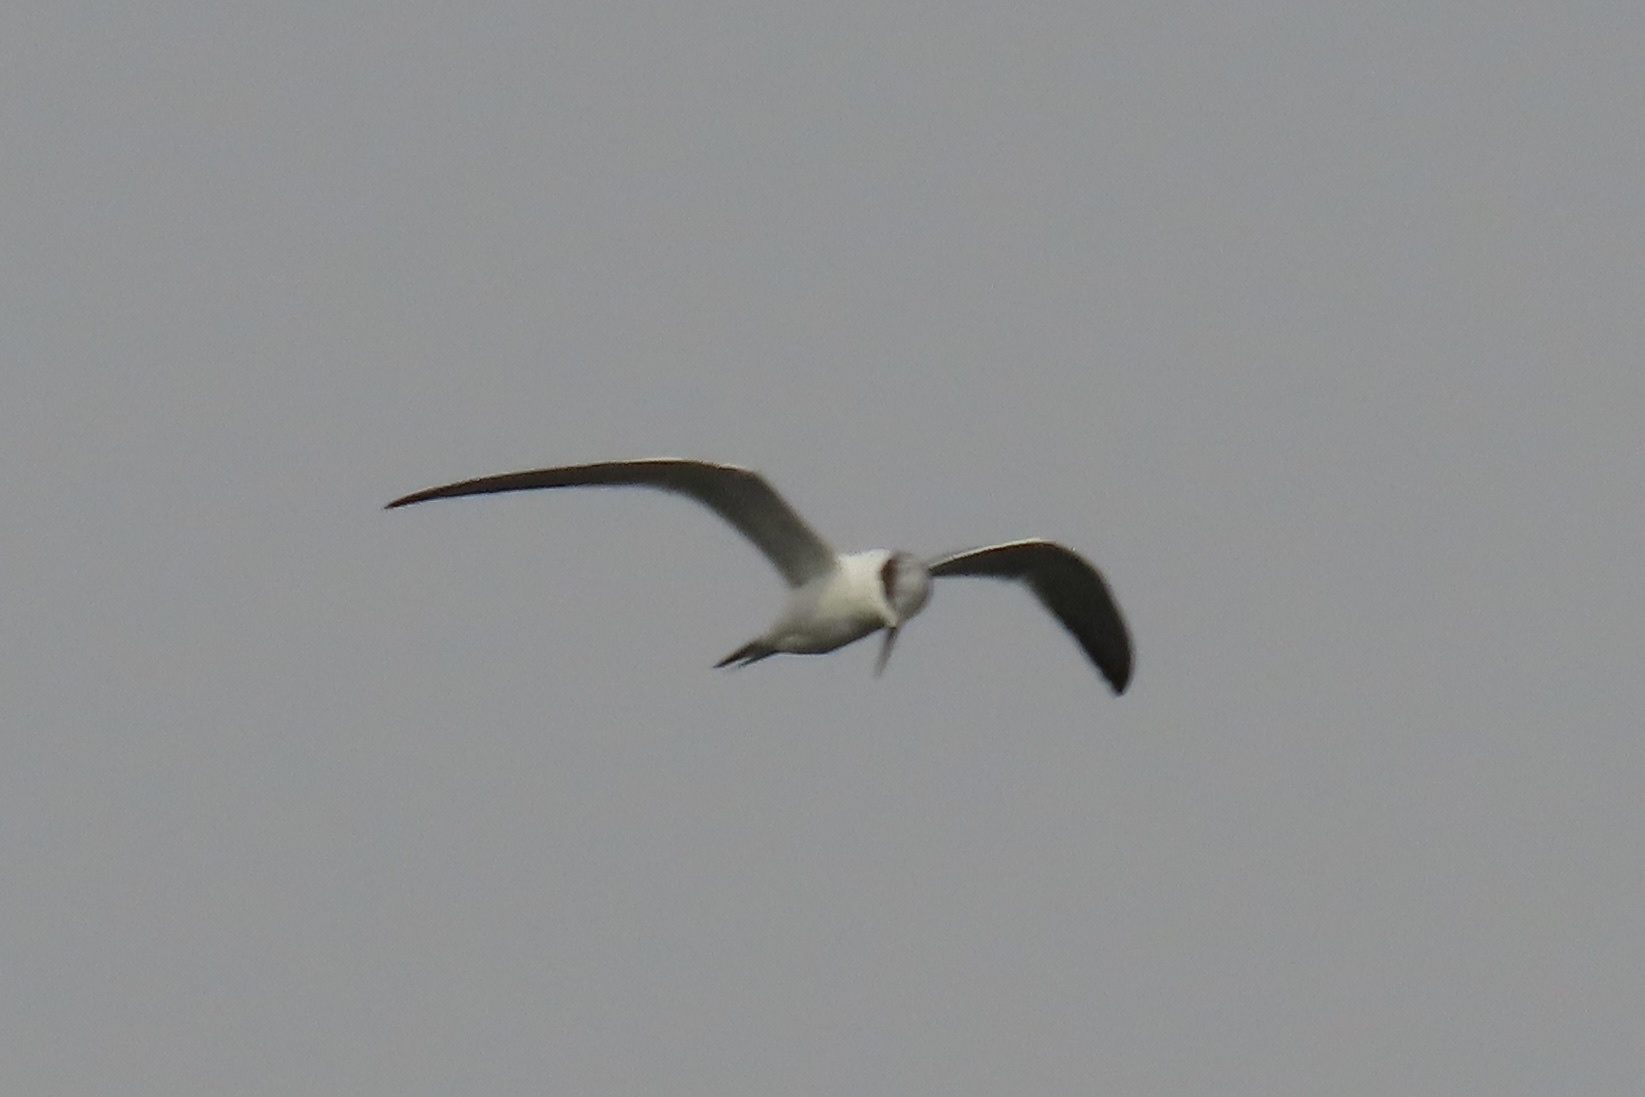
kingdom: Animalia
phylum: Chordata
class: Aves
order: Charadriiformes
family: Laridae
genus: Sterna
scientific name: Sterna forsteri
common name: Forster's tern
